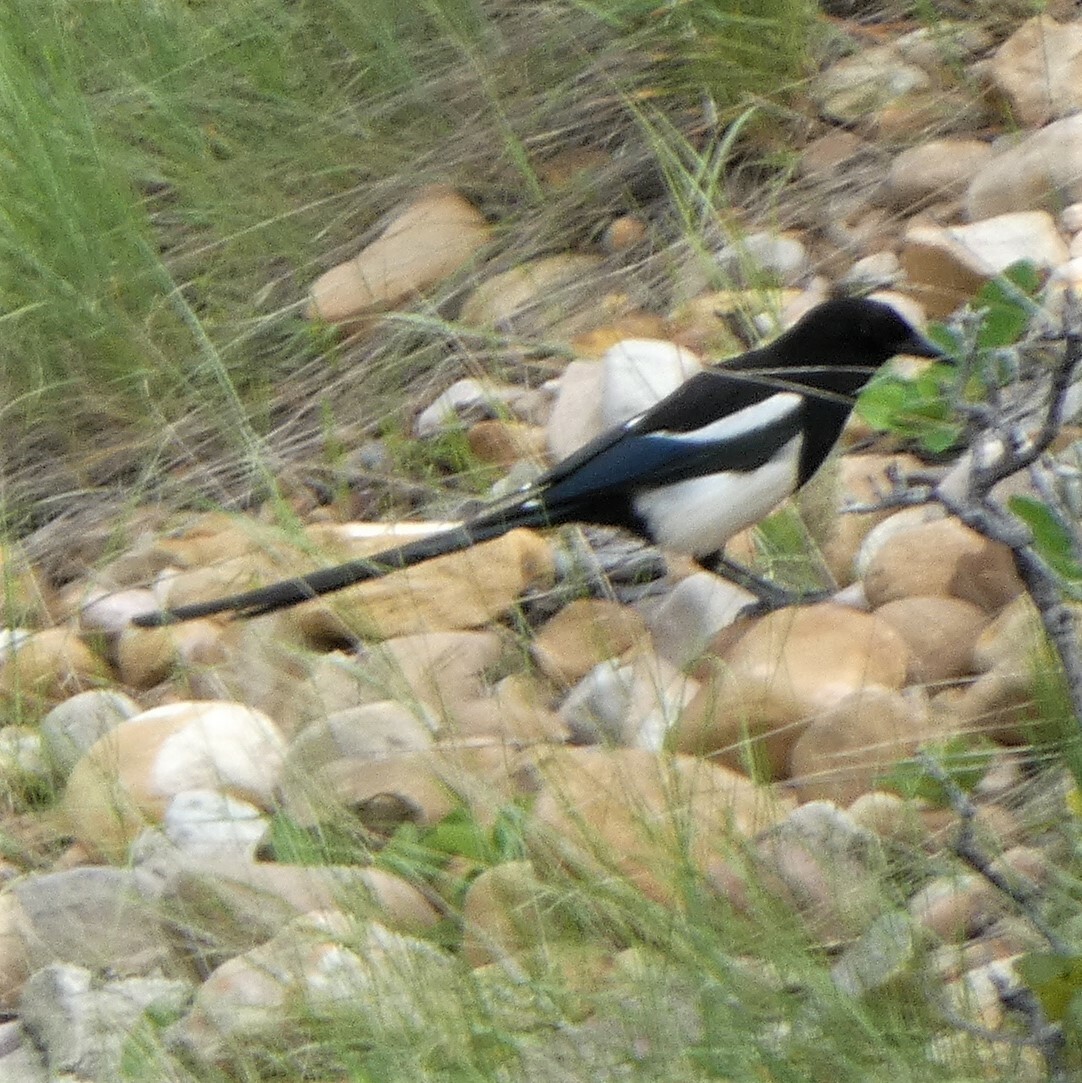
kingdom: Animalia
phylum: Chordata
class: Aves
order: Passeriformes
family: Corvidae
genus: Pica
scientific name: Pica hudsonia
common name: Black-billed magpie
